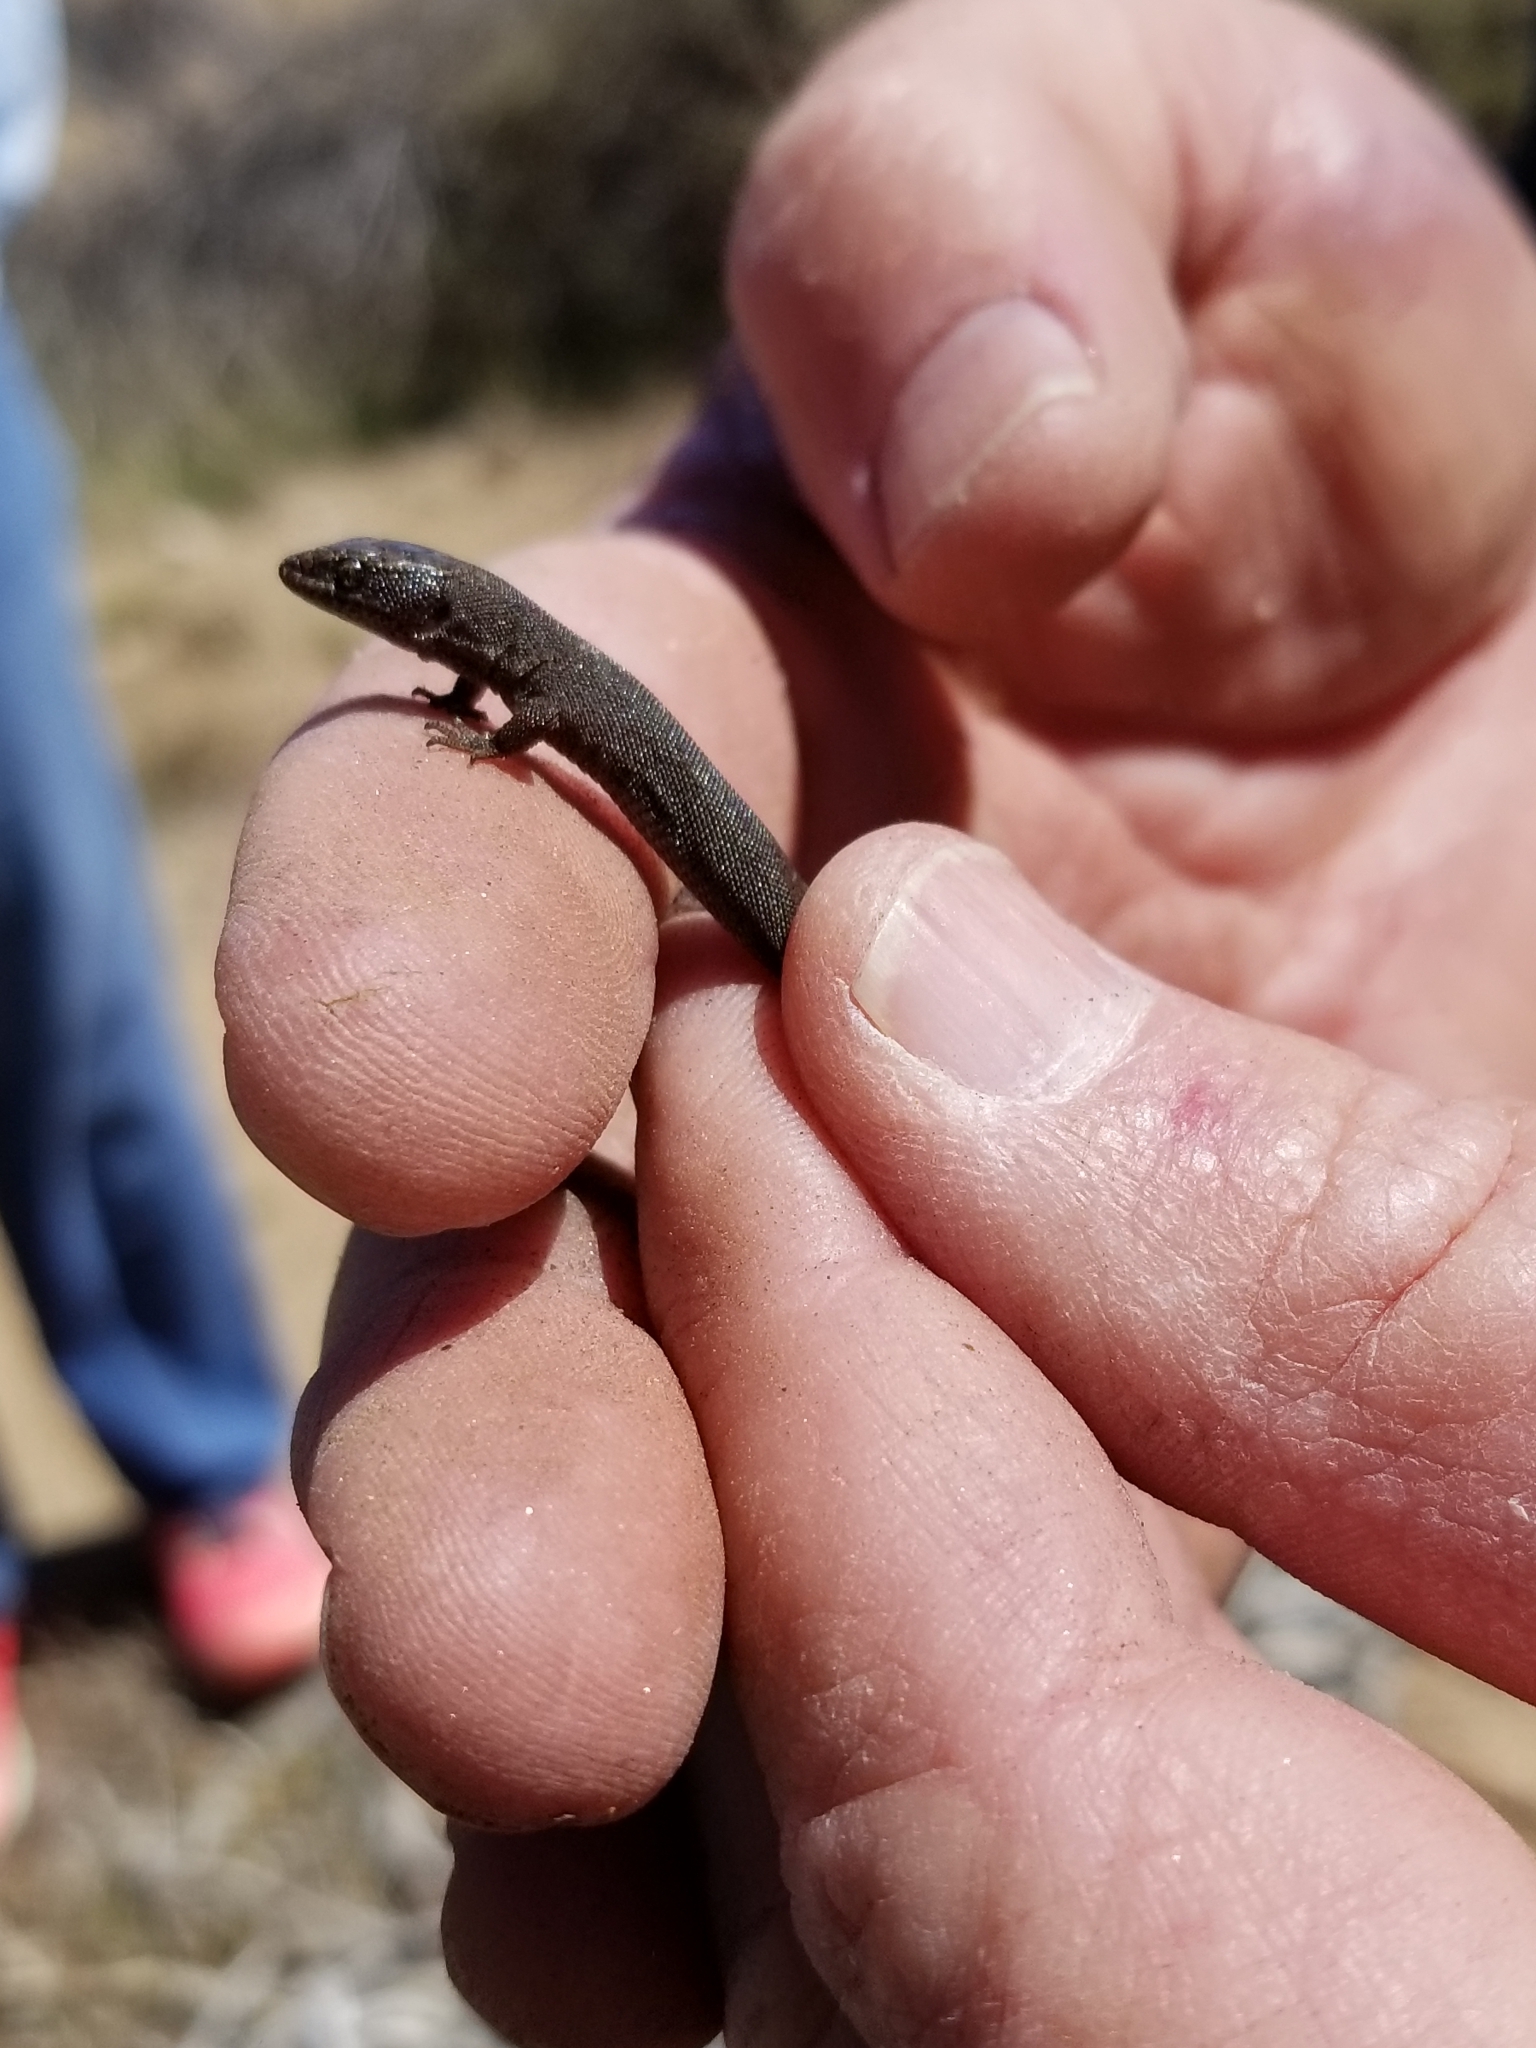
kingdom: Animalia
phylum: Chordata
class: Squamata
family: Xantusiidae
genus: Xantusia
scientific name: Xantusia vigilis
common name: Desert night lizard
